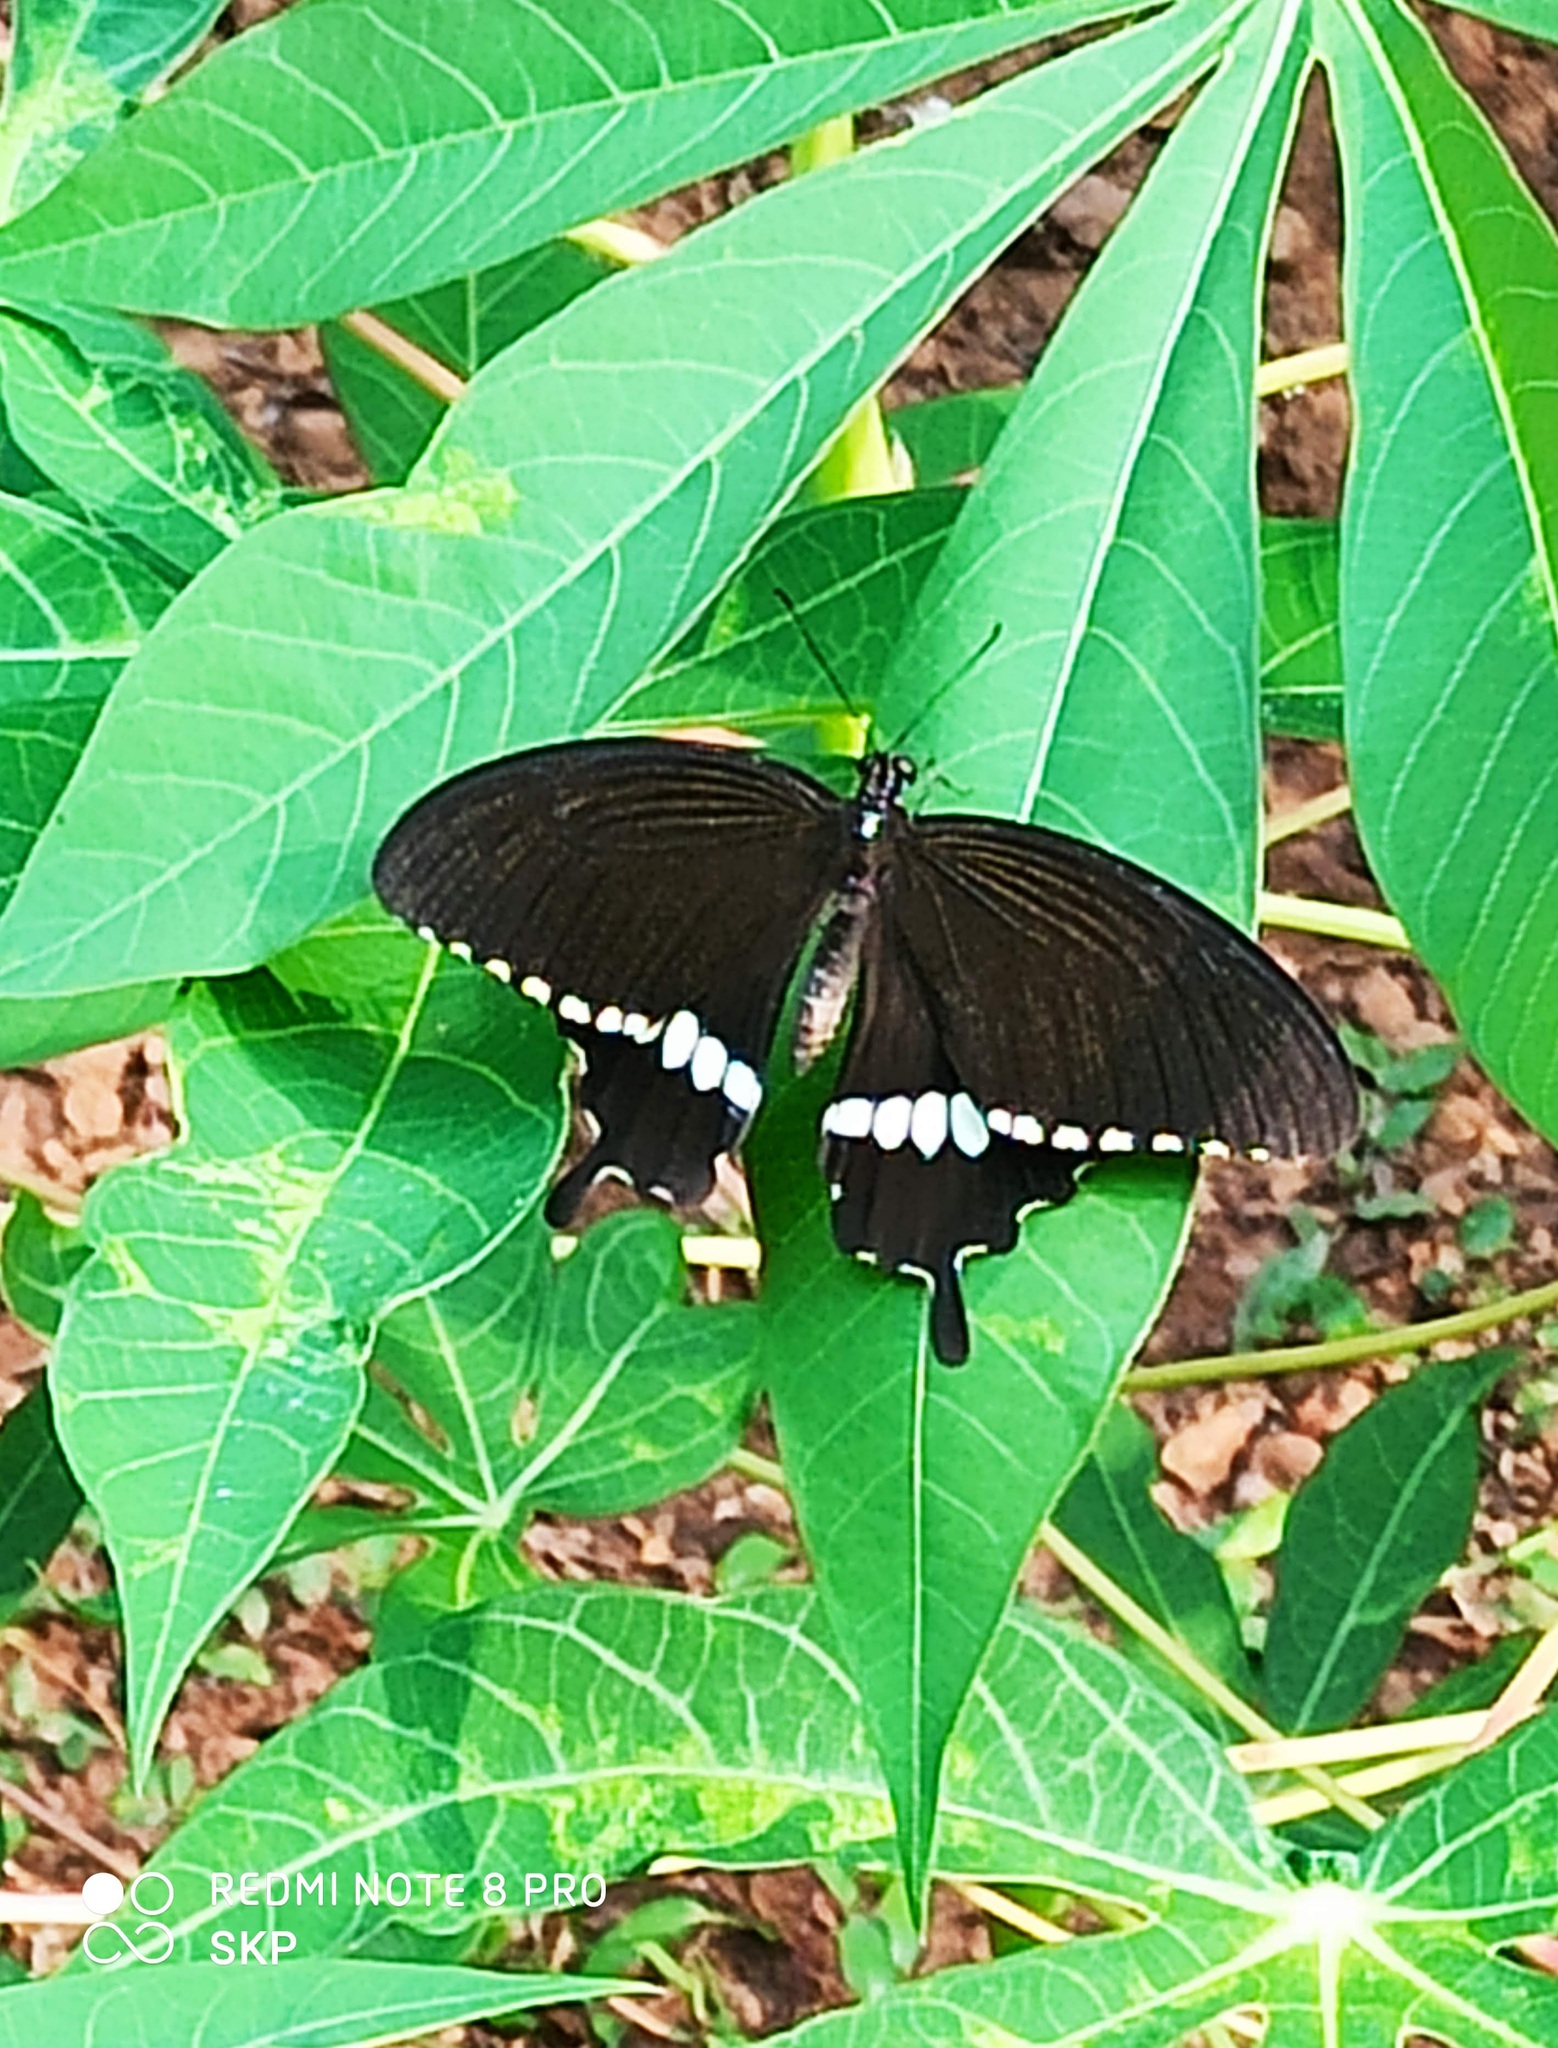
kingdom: Animalia
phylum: Arthropoda
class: Insecta
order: Lepidoptera
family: Papilionidae
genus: Papilio
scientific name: Papilio polytes
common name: Common mormon
